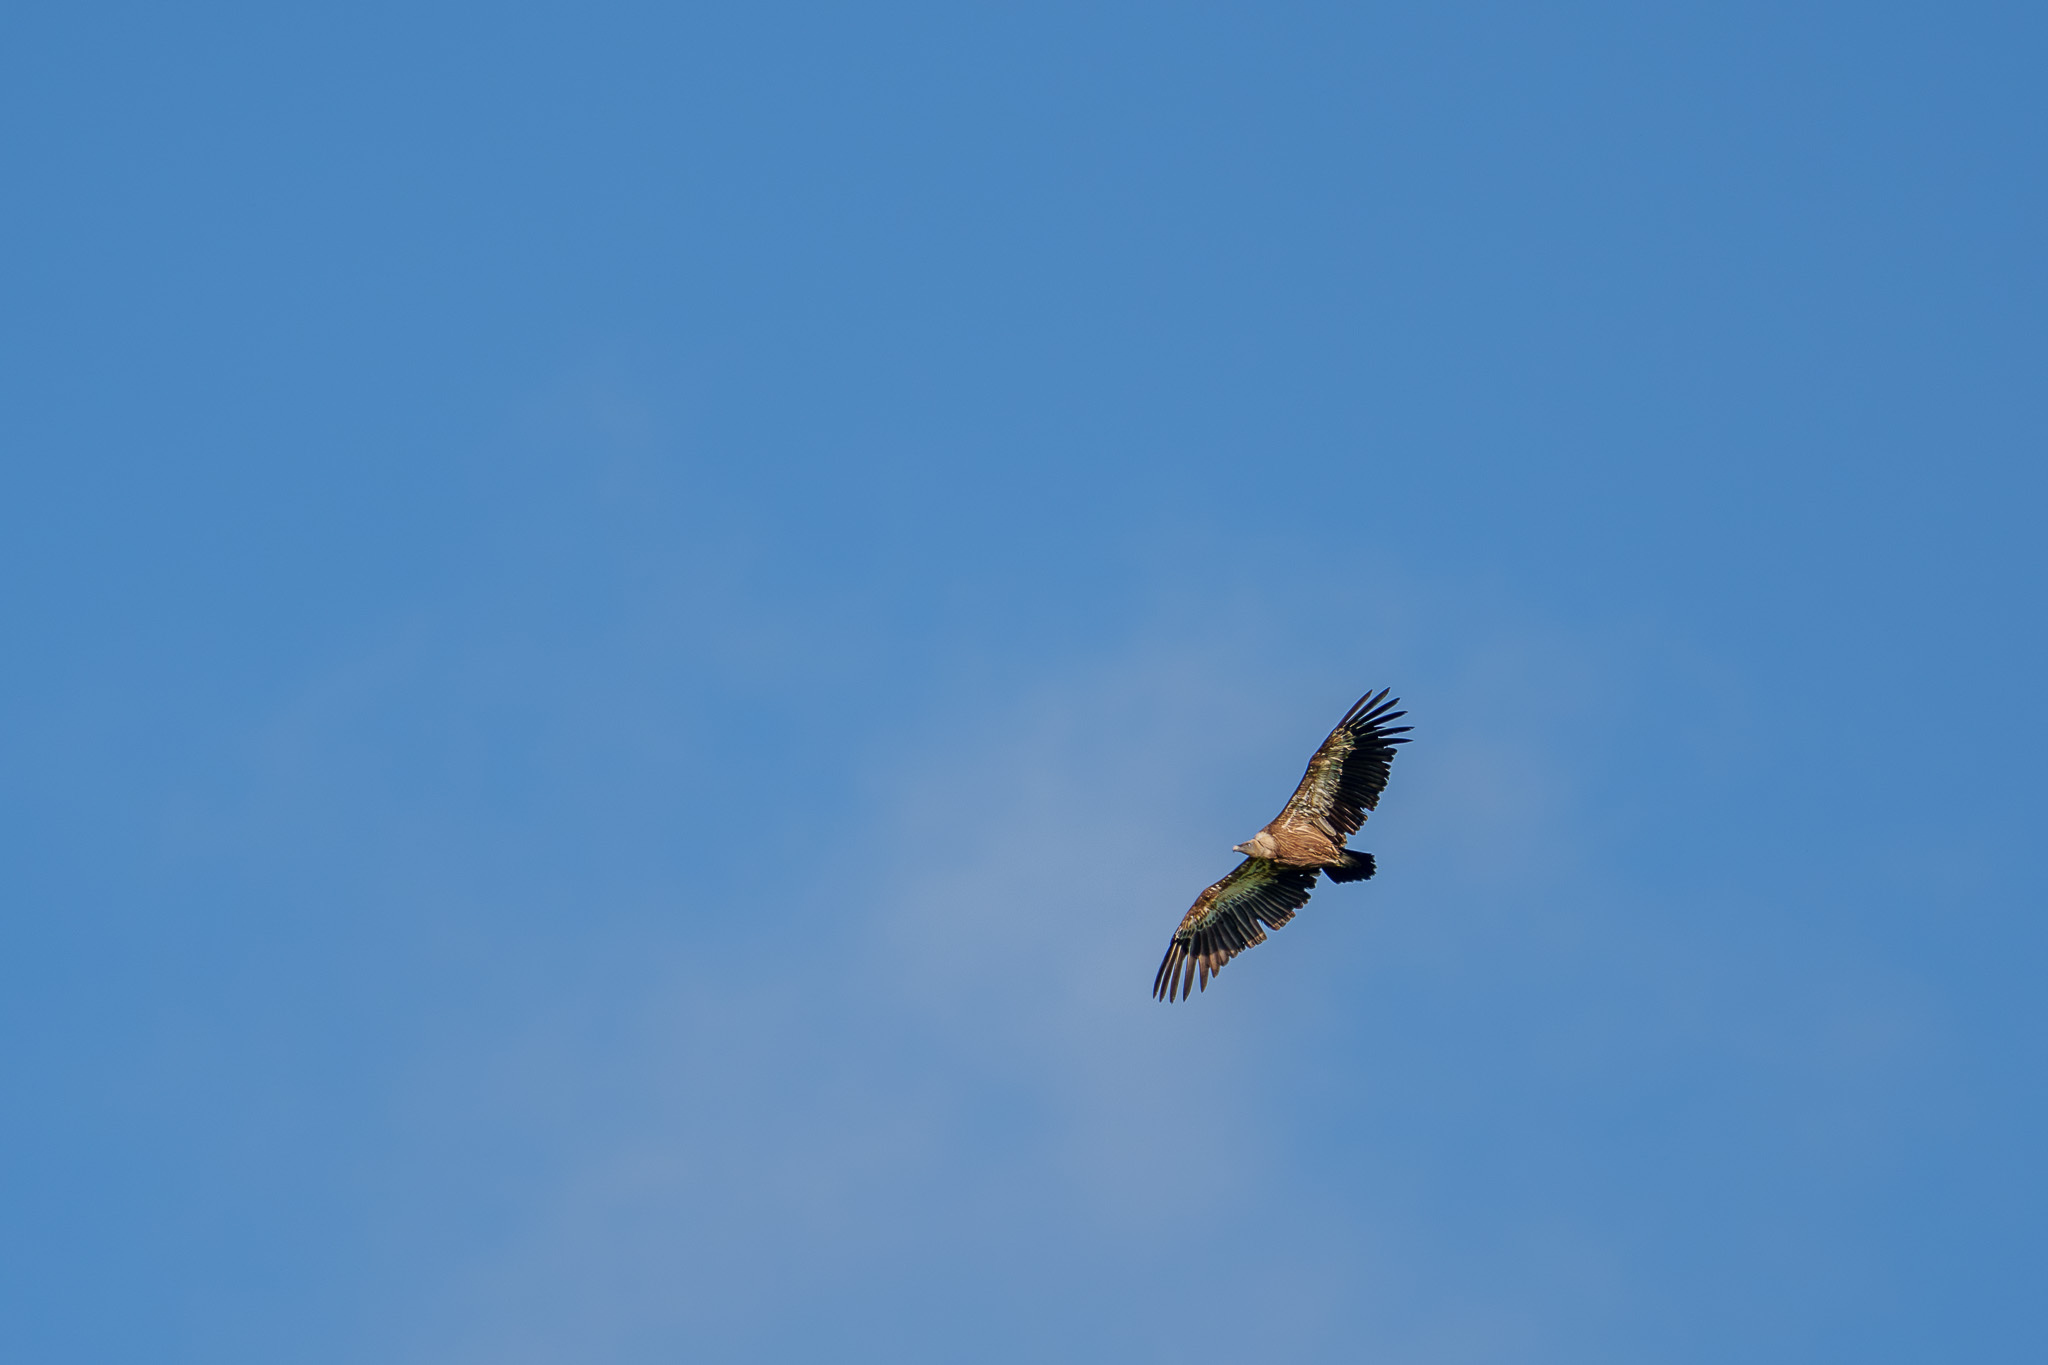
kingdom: Animalia
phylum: Chordata
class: Aves
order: Accipitriformes
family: Accipitridae
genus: Gyps
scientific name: Gyps fulvus
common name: Griffon vulture
